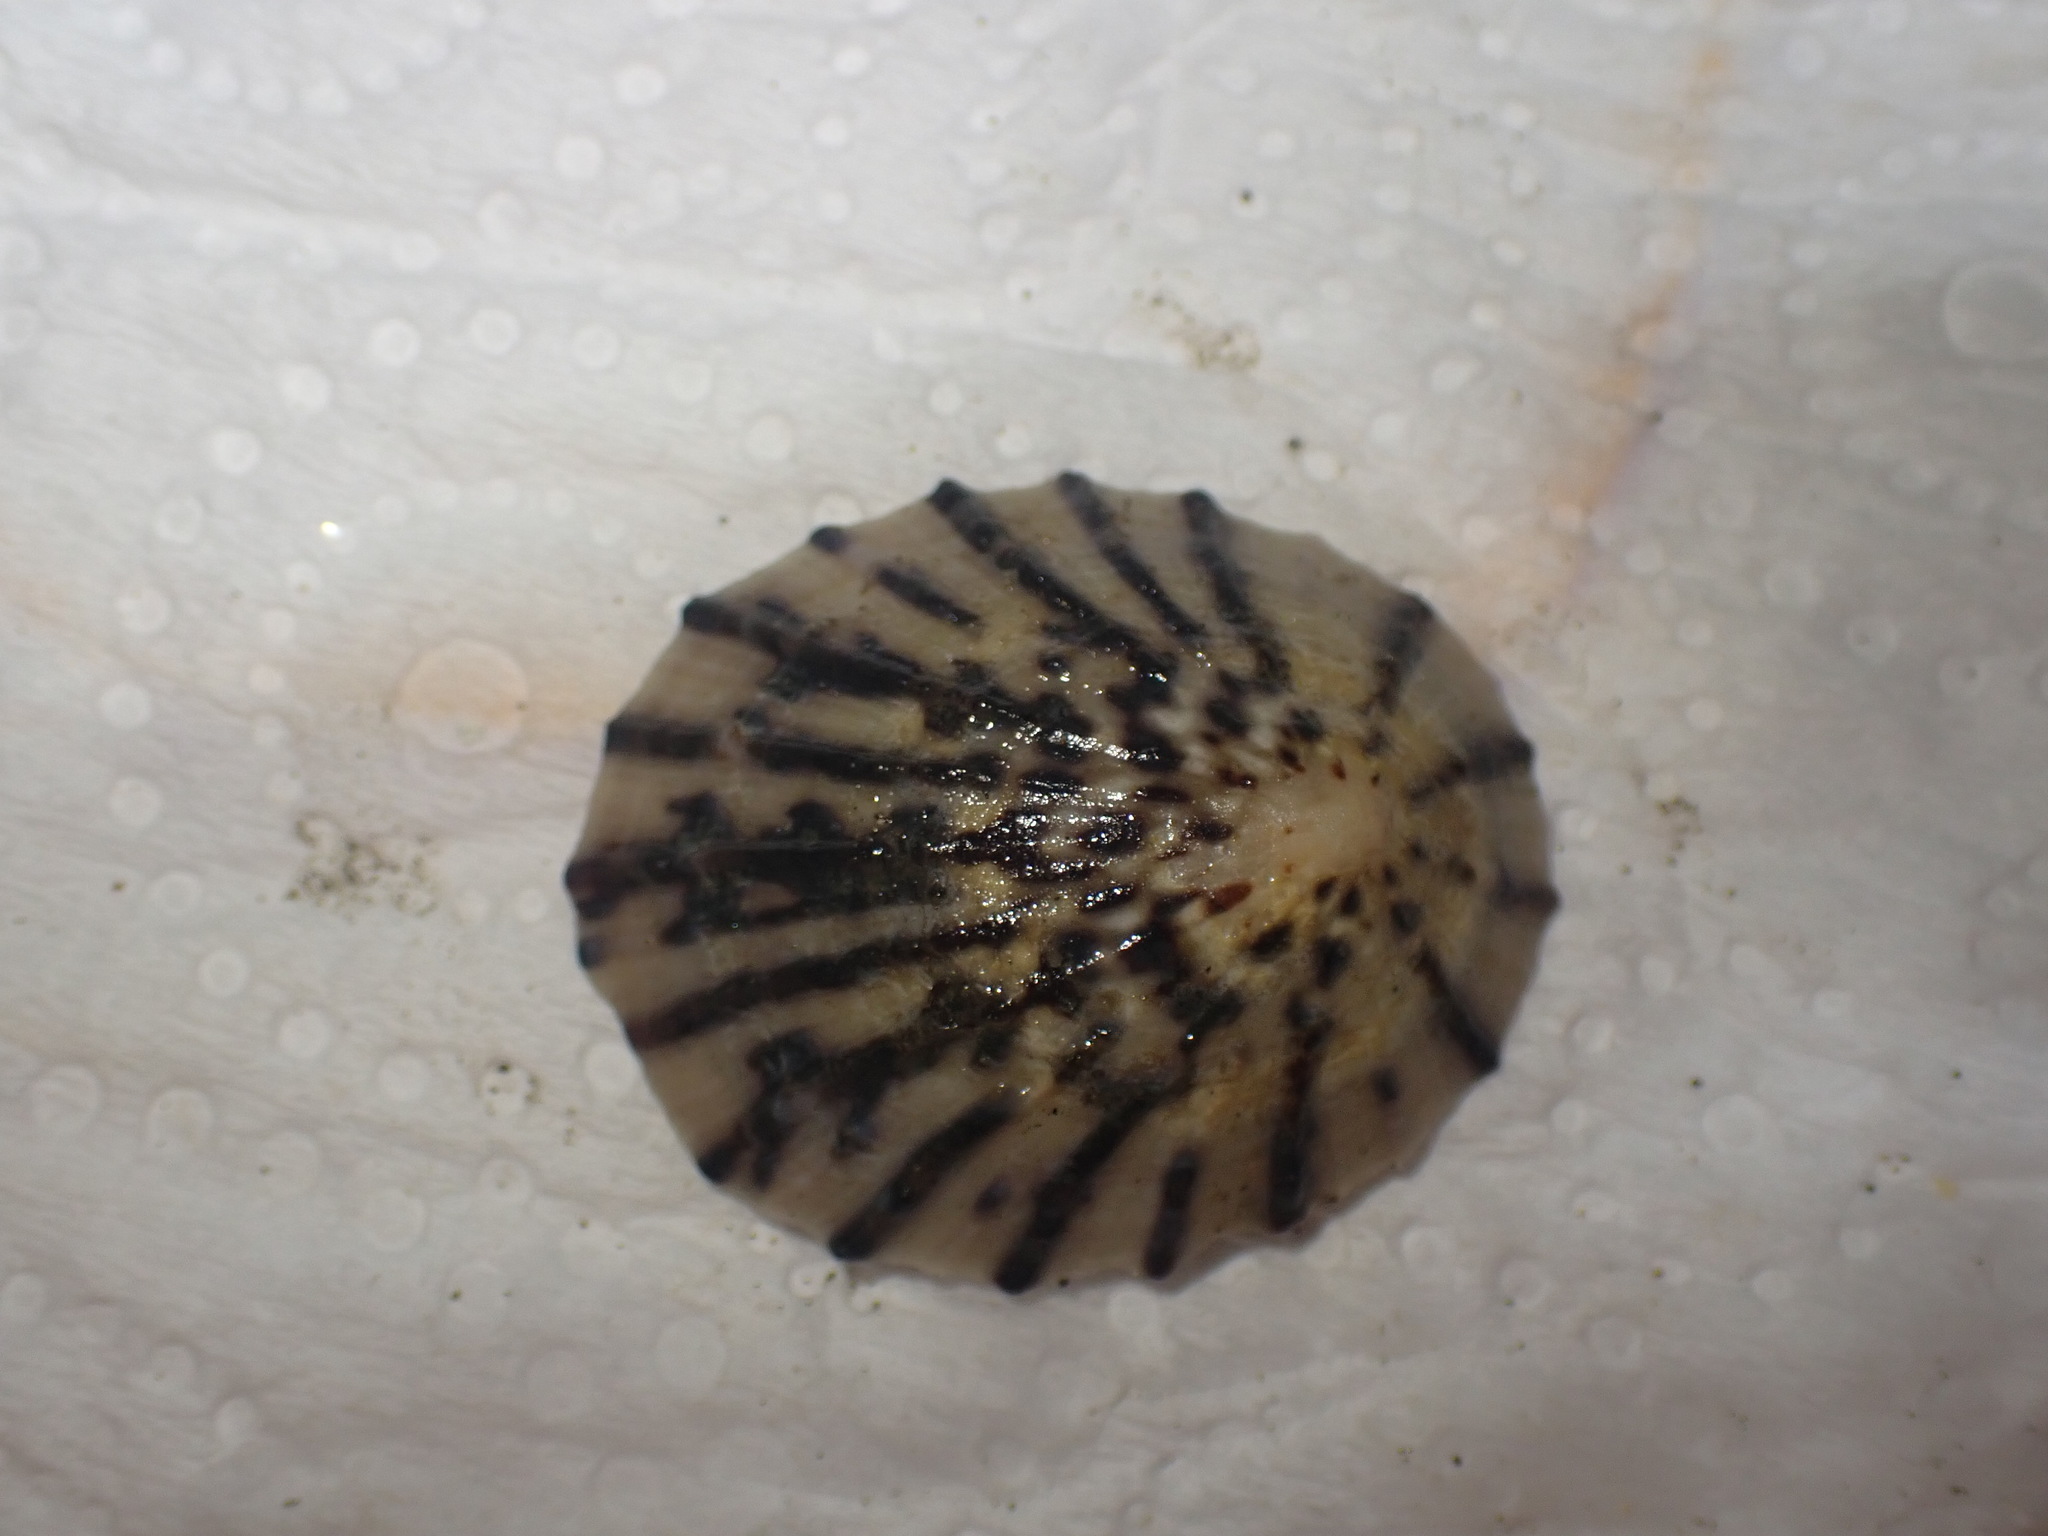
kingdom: Animalia
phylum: Mollusca
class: Gastropoda
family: Nacellidae
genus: Cellana
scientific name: Cellana radians
